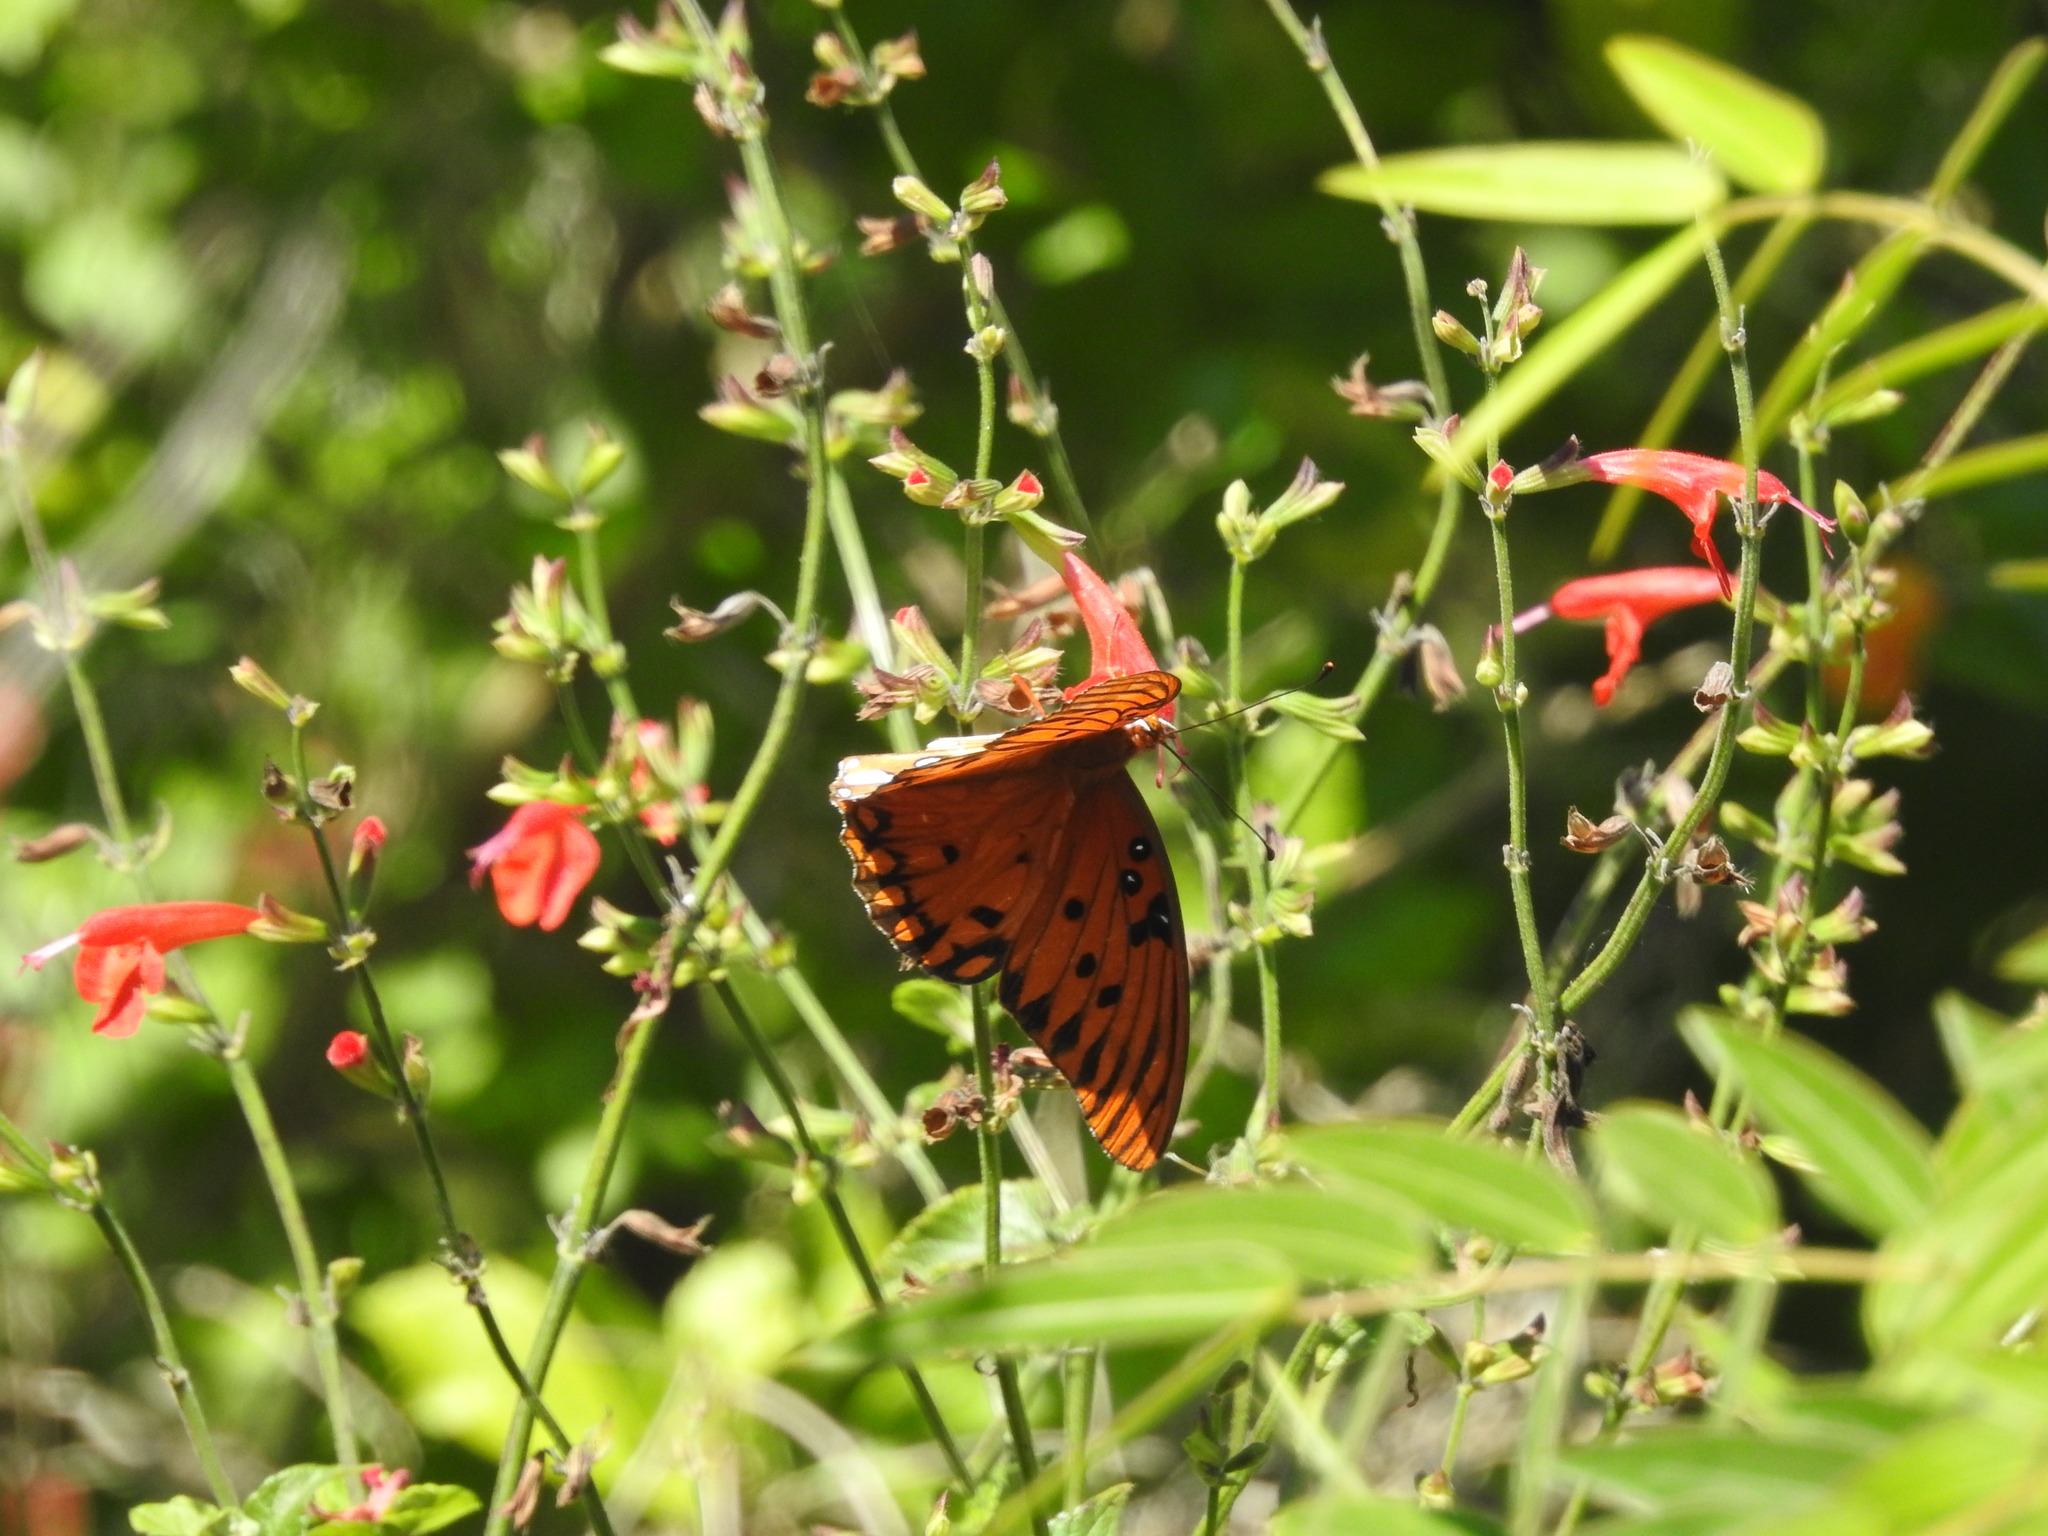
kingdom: Animalia
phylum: Arthropoda
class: Insecta
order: Lepidoptera
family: Nymphalidae
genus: Dione
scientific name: Dione vanillae
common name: Gulf fritillary
